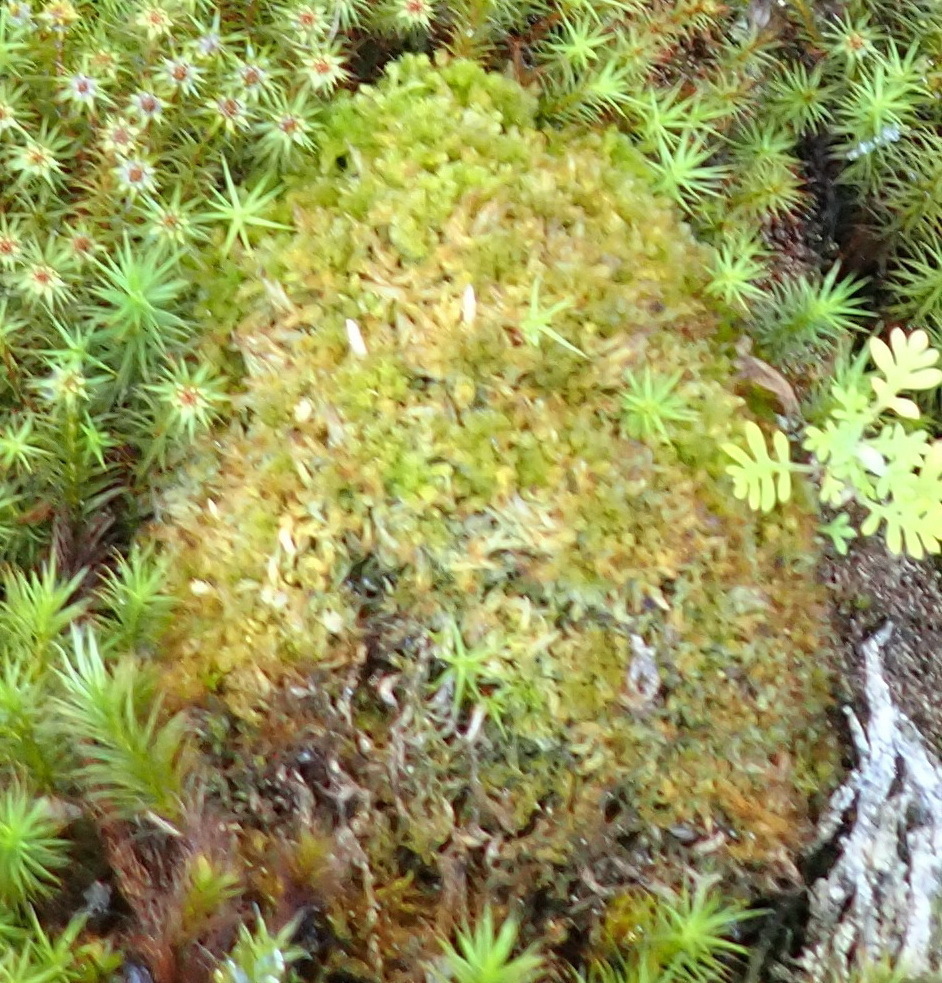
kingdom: Plantae
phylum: Bryophyta
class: Sphagnopsida
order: Sphagnales
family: Sphagnaceae
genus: Sphagnum
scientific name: Sphagnum strictum
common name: Pale bog-moss
